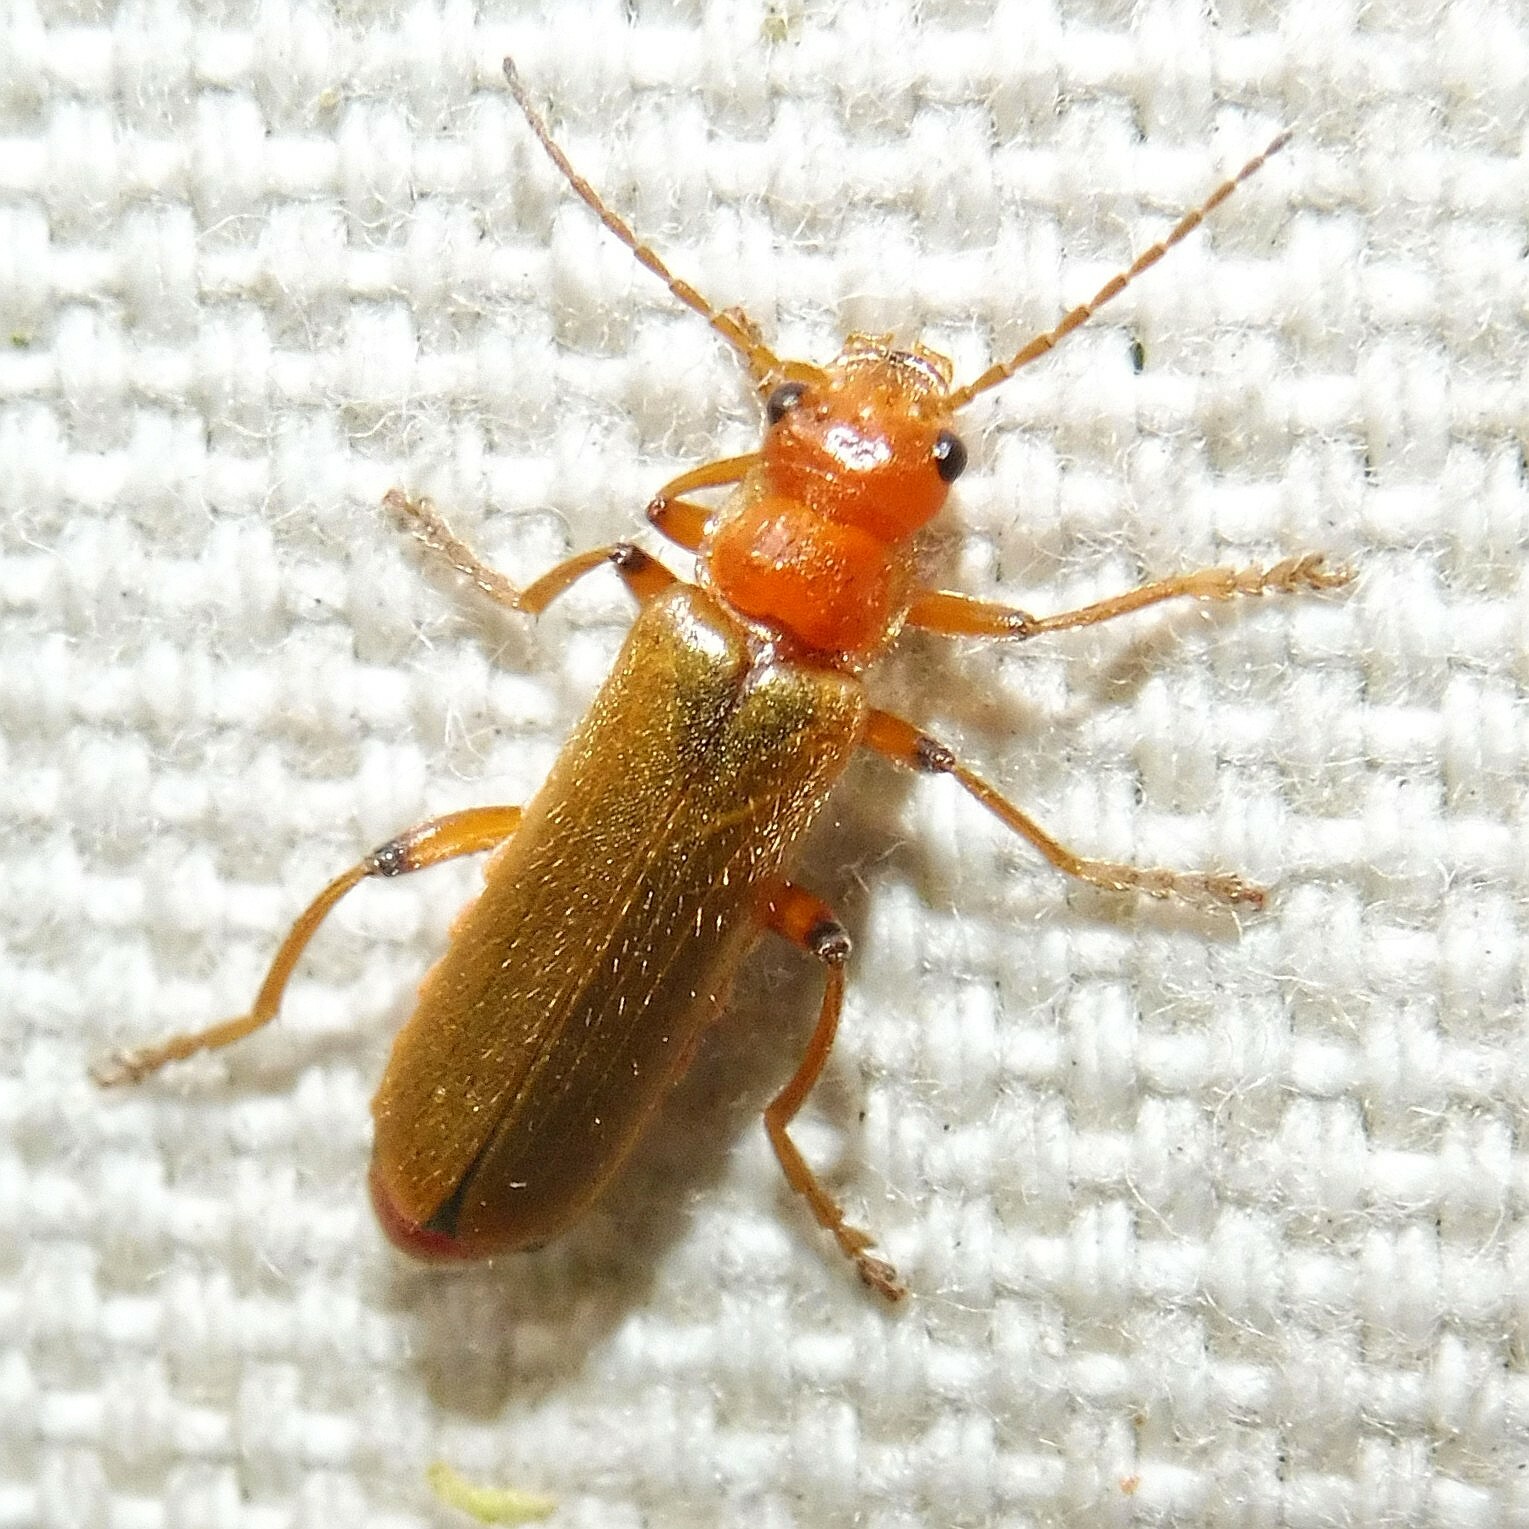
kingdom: Animalia
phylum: Arthropoda
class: Insecta
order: Coleoptera
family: Cantharidae
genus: Cantharis
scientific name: Cantharis cryptica
